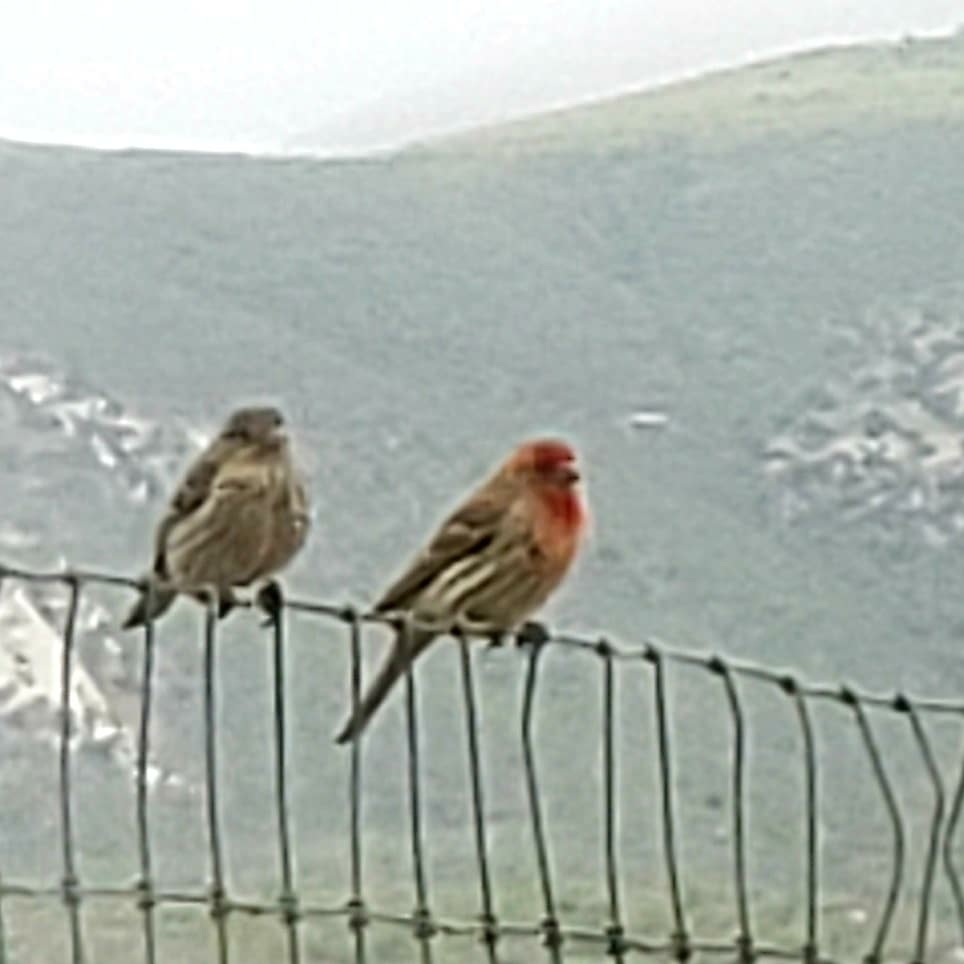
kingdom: Animalia
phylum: Chordata
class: Aves
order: Passeriformes
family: Fringillidae
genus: Haemorhous
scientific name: Haemorhous mexicanus
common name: House finch
